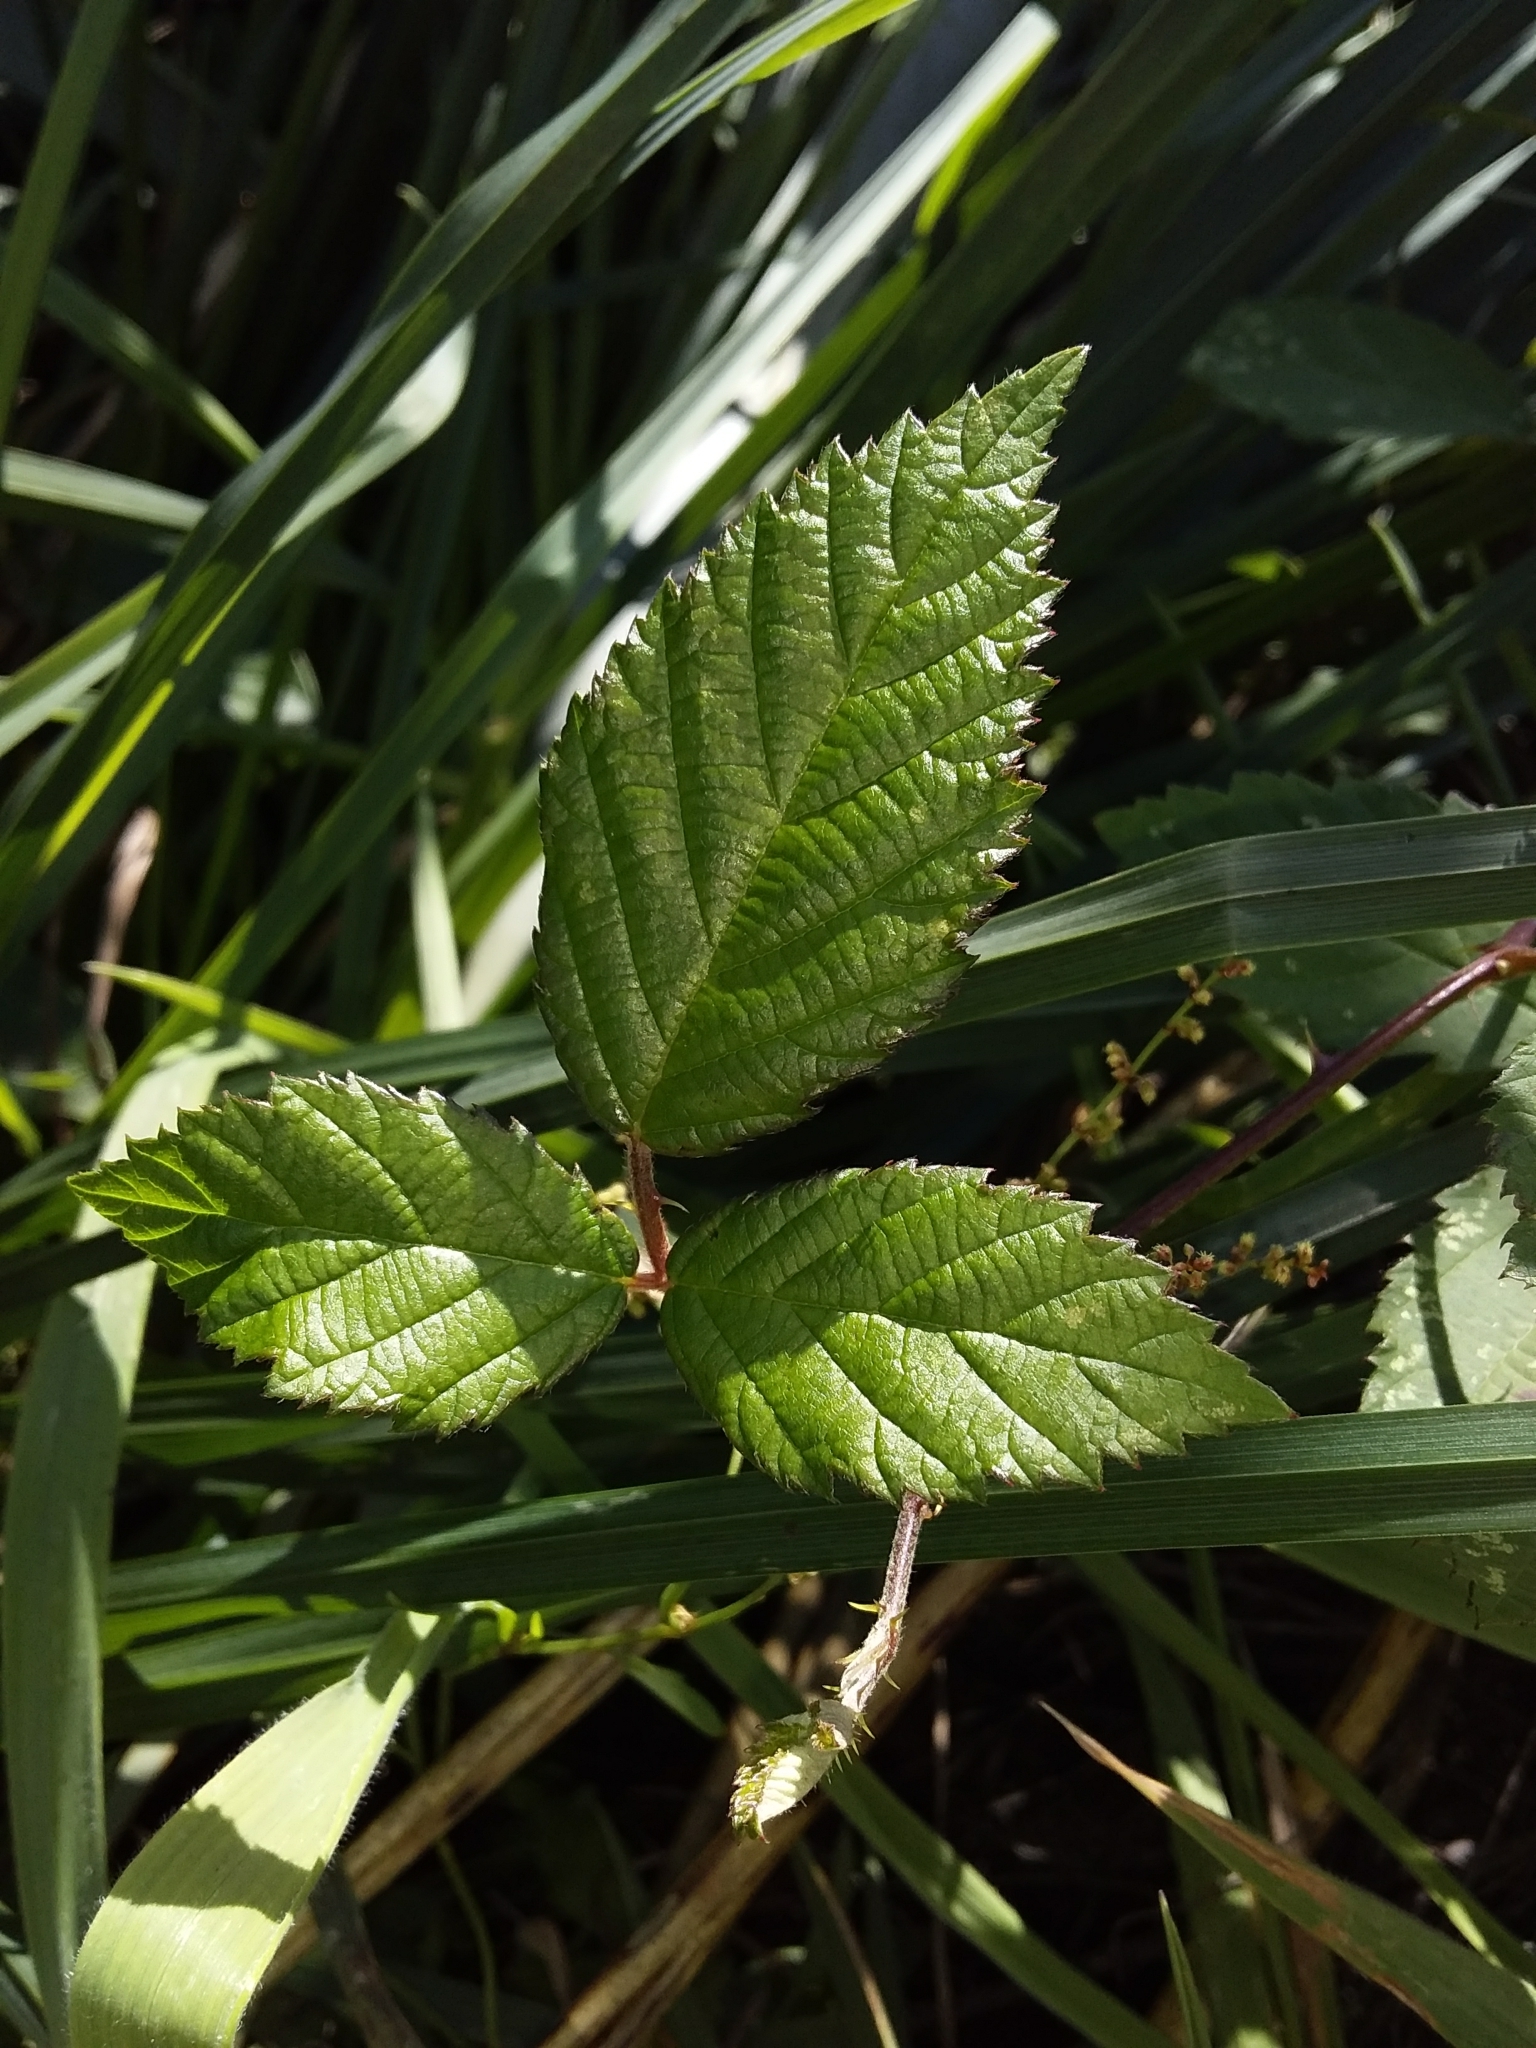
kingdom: Plantae
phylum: Tracheophyta
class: Magnoliopsida
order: Rosales
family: Rosaceae
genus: Rubus
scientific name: Rubus
